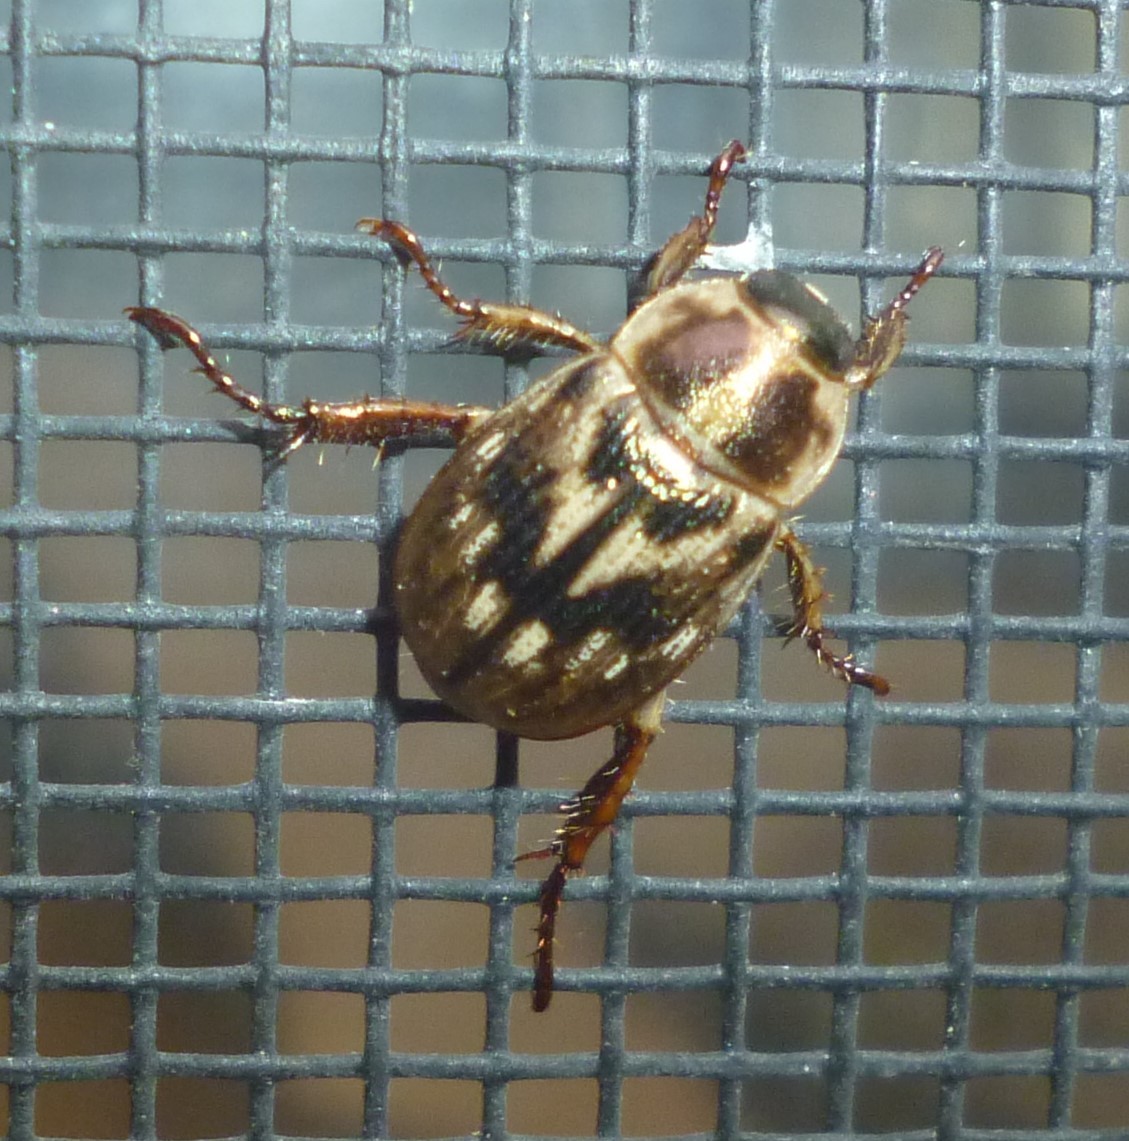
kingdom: Animalia
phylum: Arthropoda
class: Insecta
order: Coleoptera
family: Scarabaeidae
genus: Exomala
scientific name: Exomala orientalis
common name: Oriental beetle
